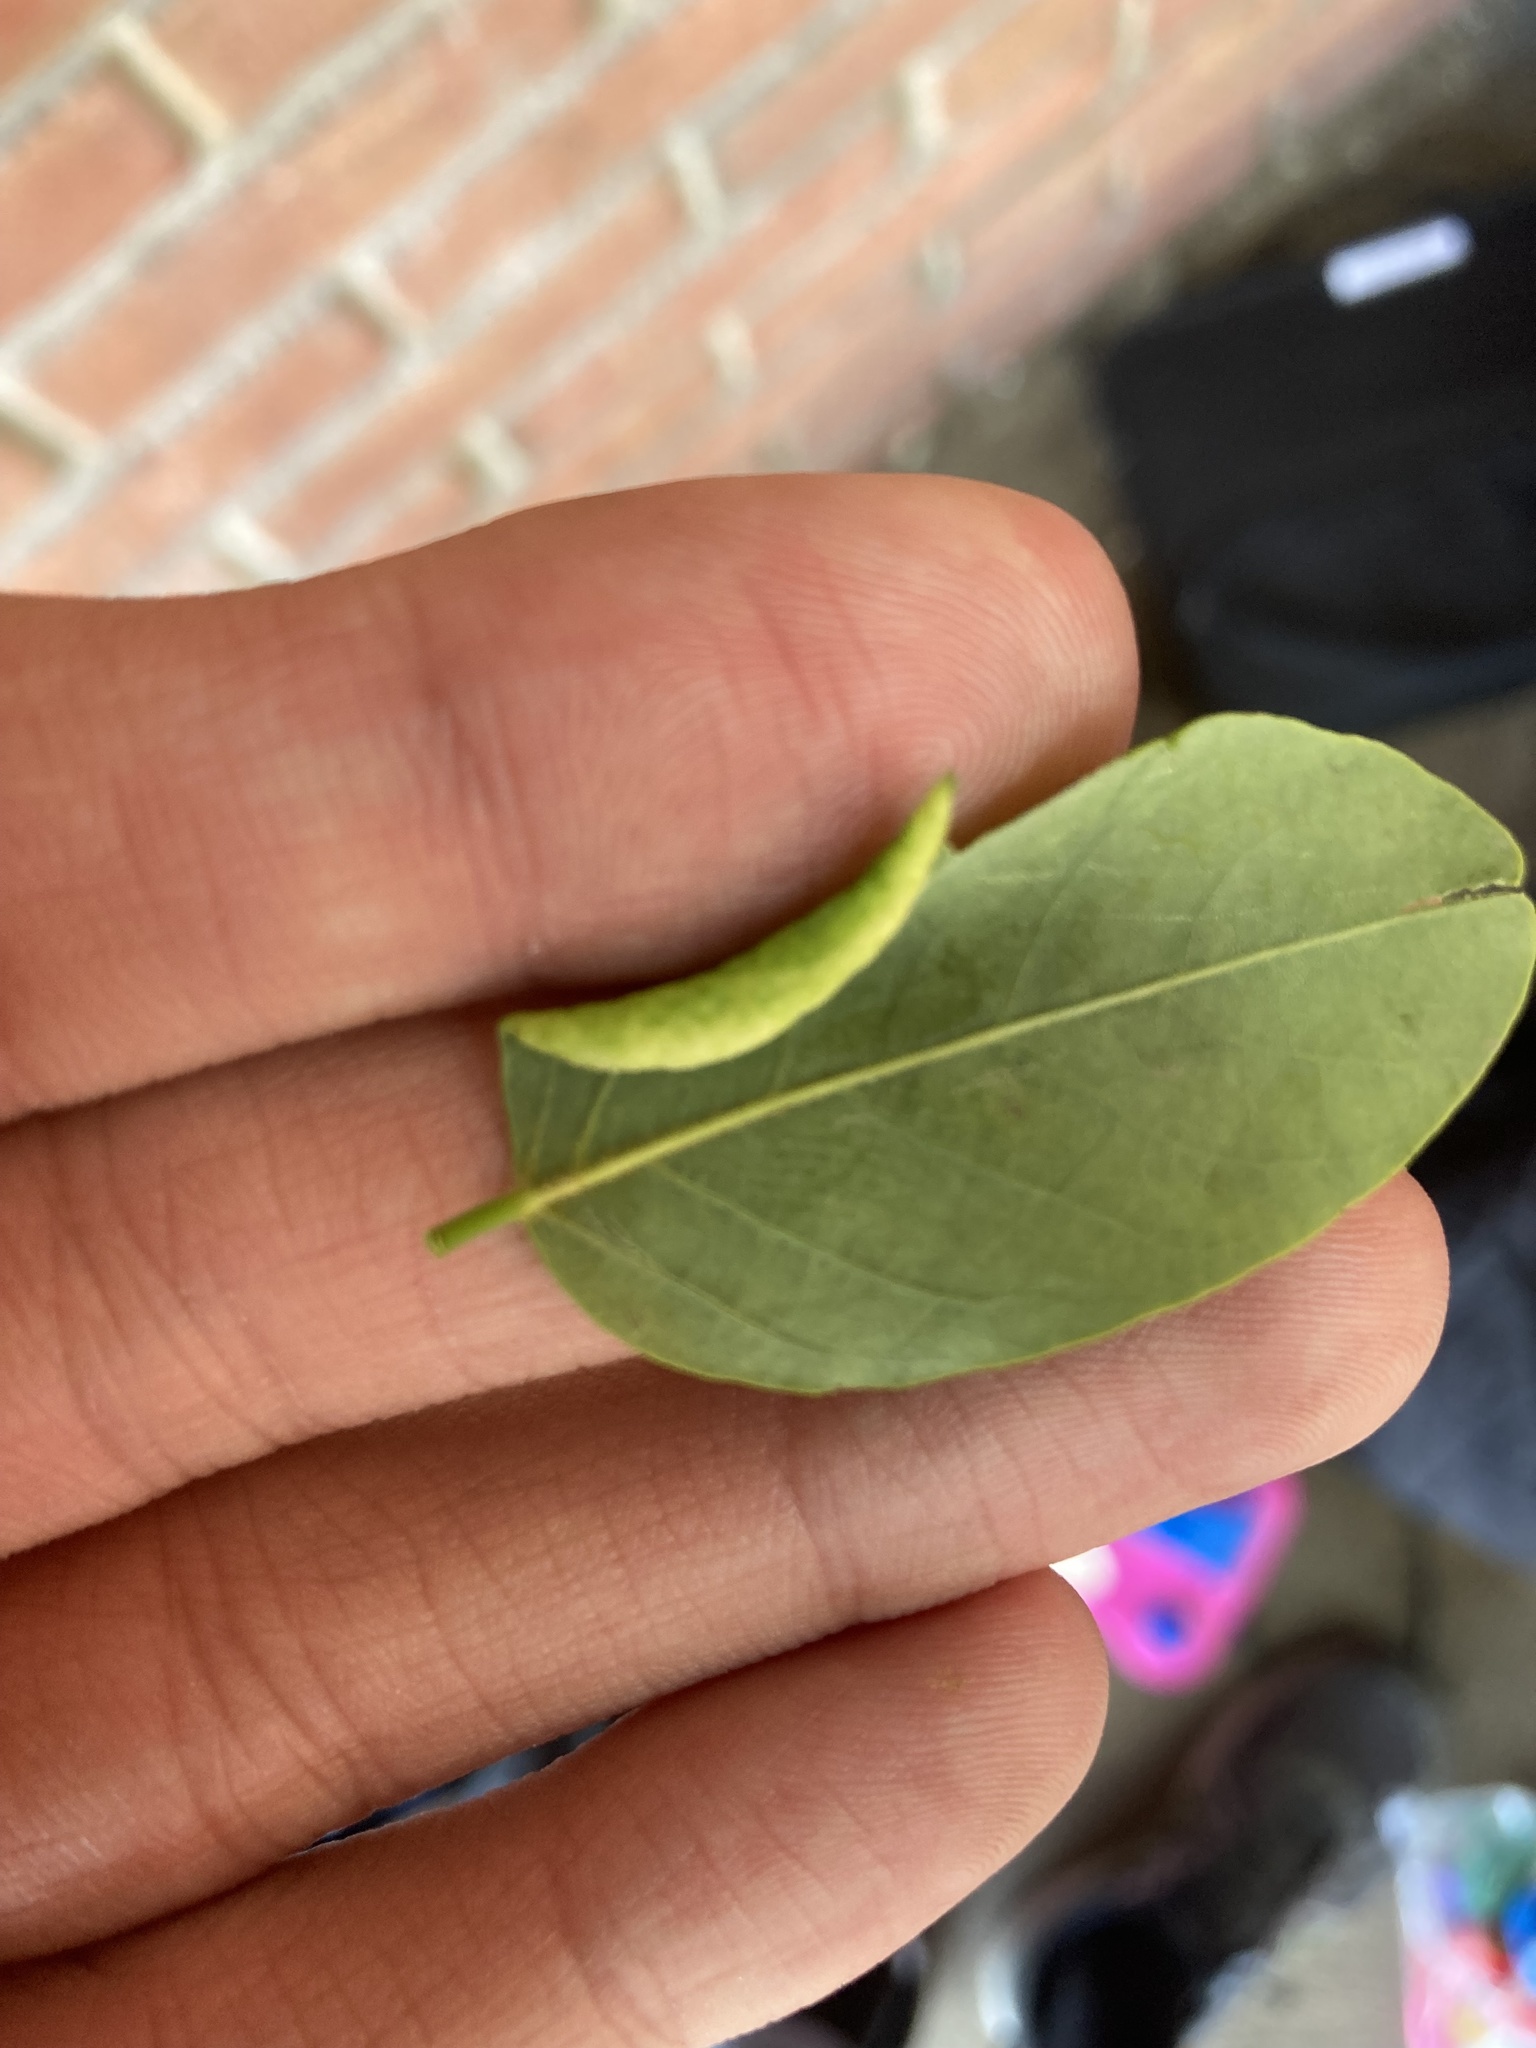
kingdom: Animalia
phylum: Arthropoda
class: Insecta
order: Diptera
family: Cecidomyiidae
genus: Obolodiplosis
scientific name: Obolodiplosis robiniae
